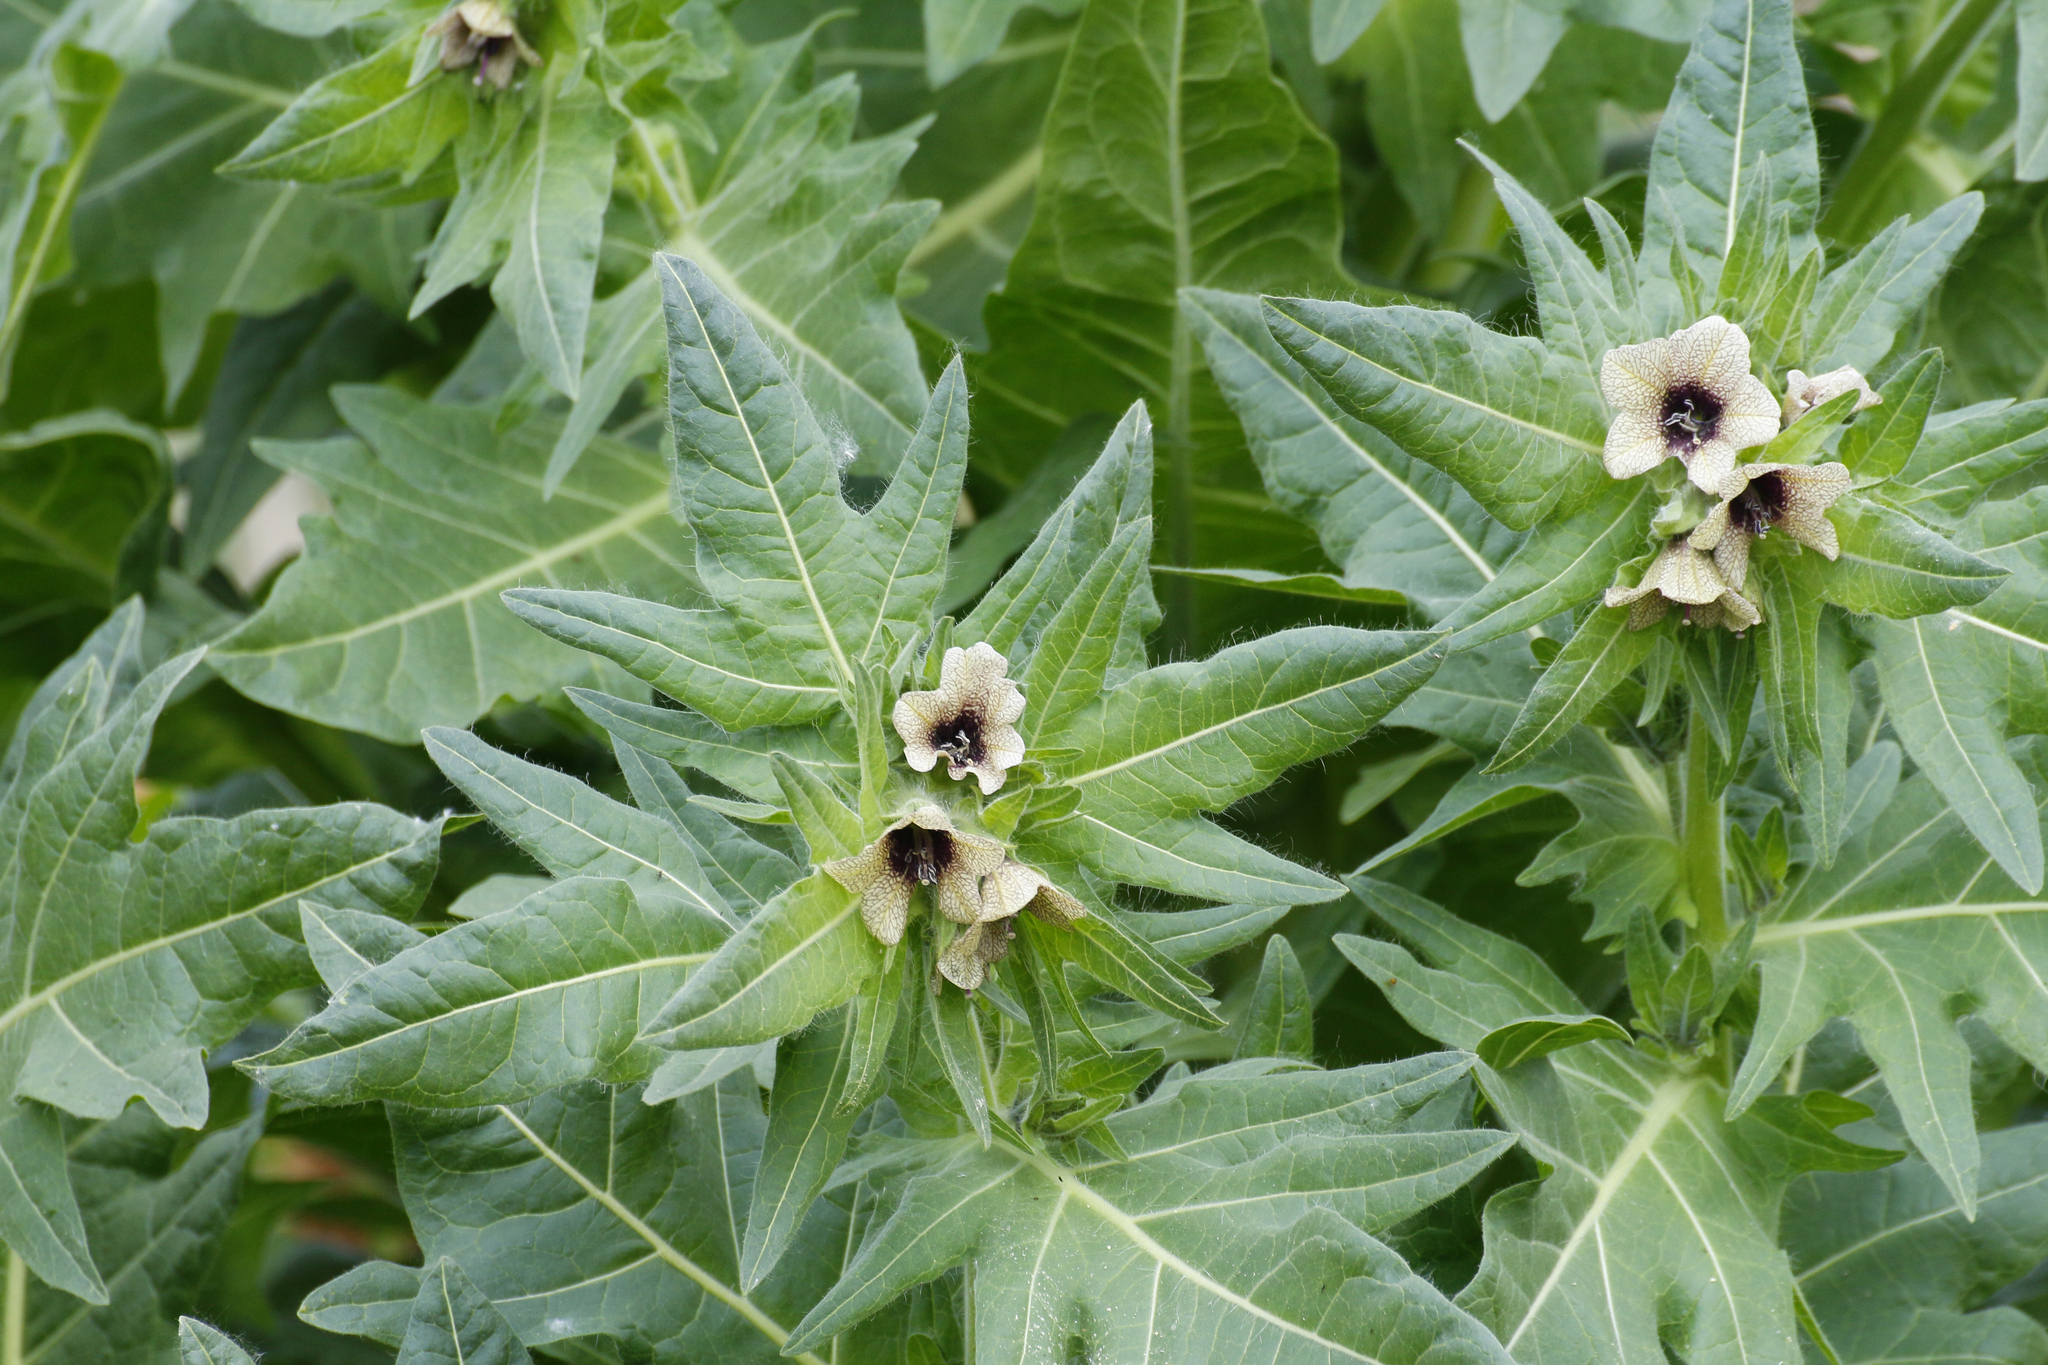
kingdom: Plantae
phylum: Tracheophyta
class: Magnoliopsida
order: Solanales
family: Solanaceae
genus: Hyoscyamus
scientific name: Hyoscyamus niger
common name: Henbane
